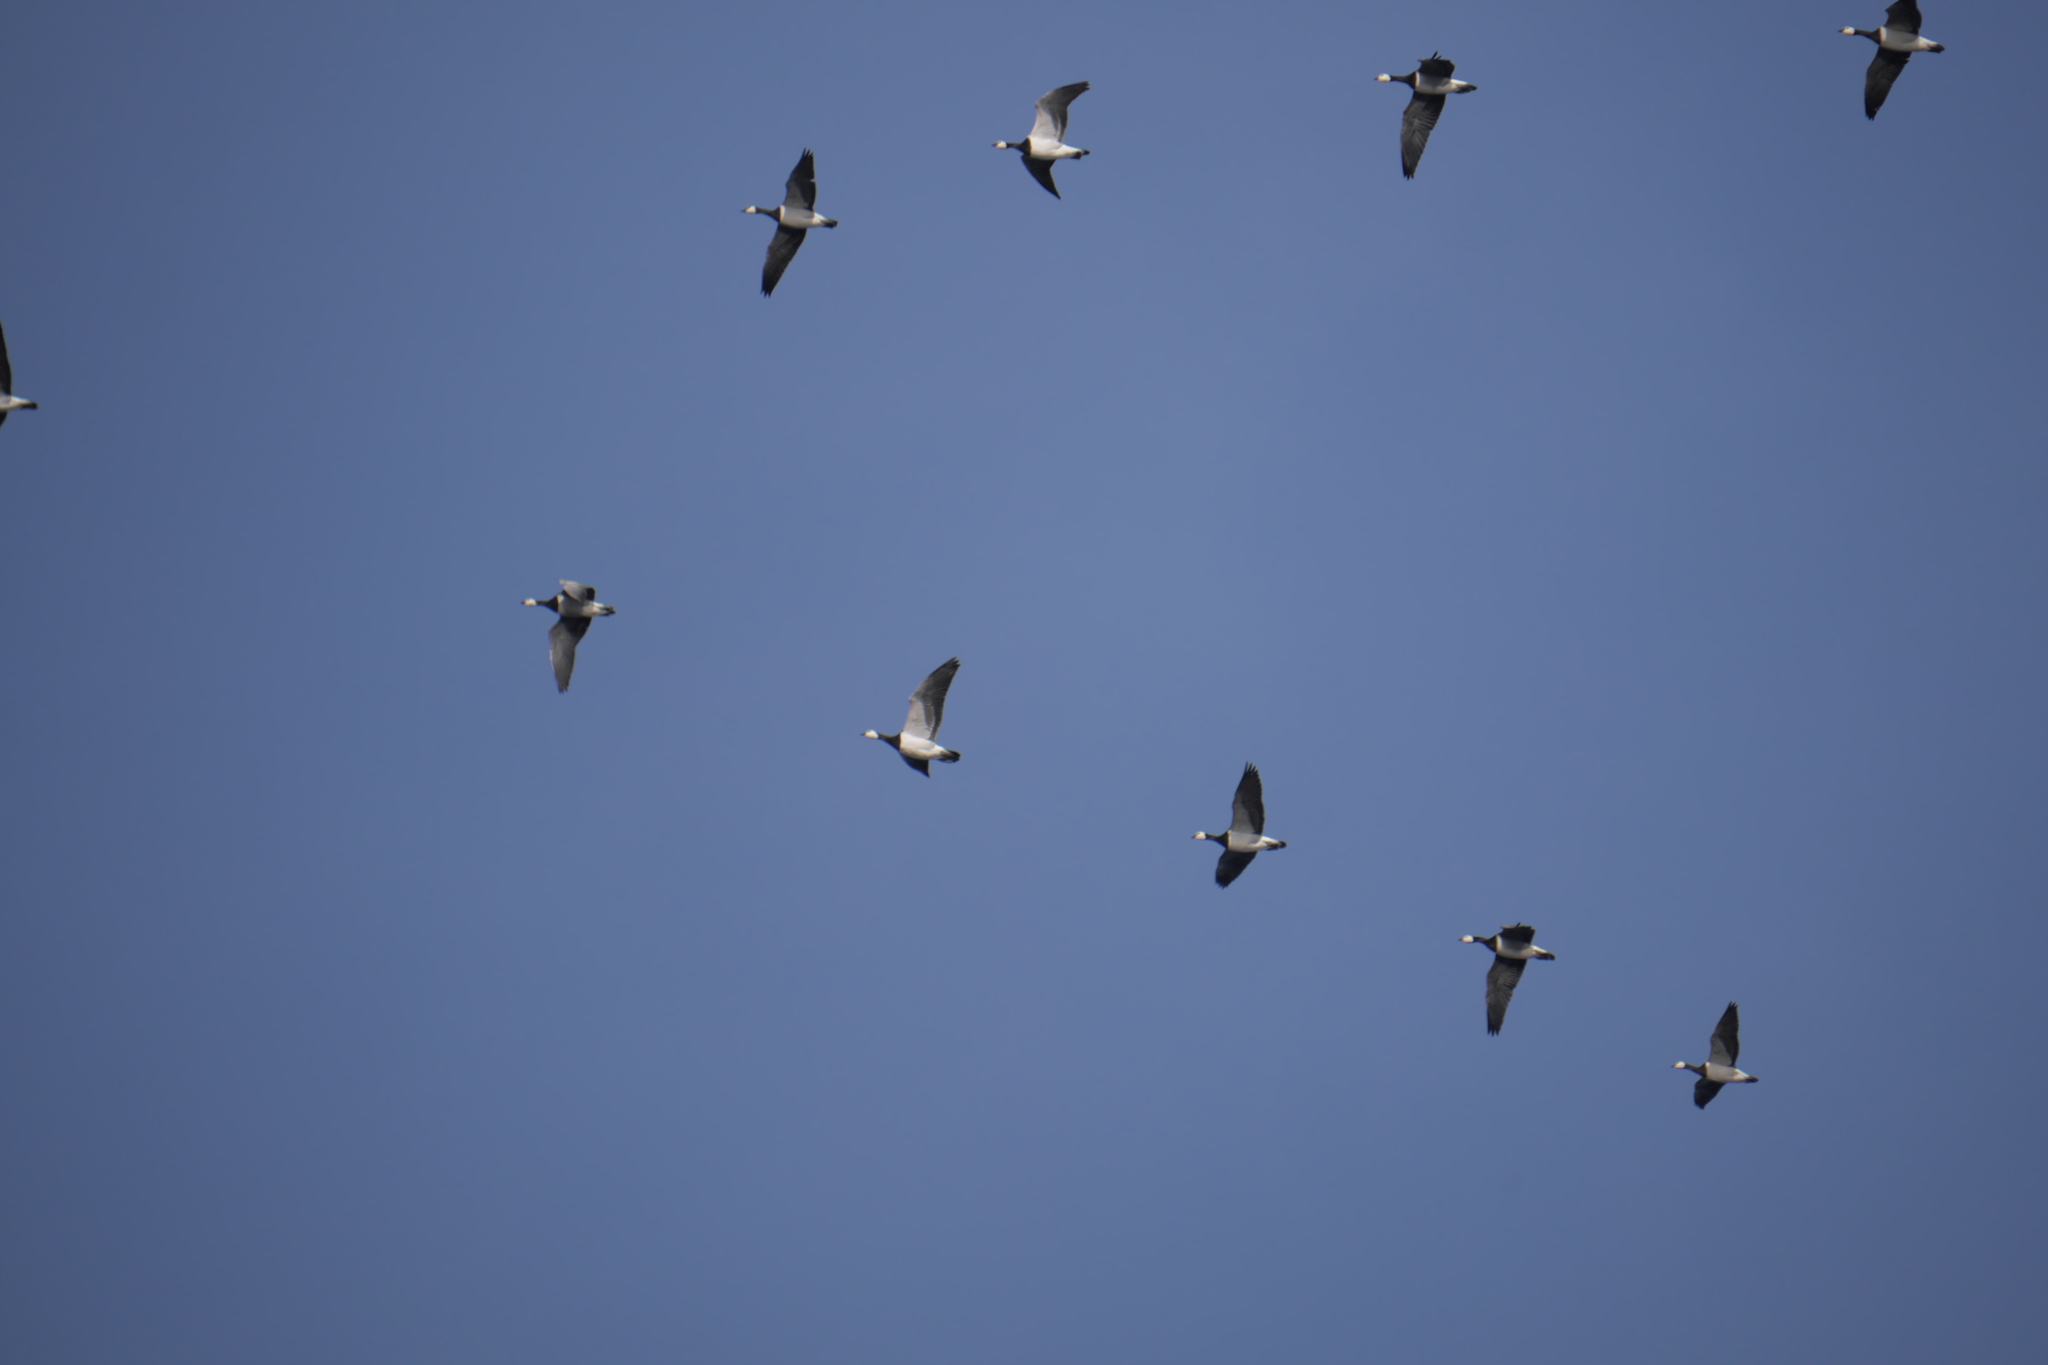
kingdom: Animalia
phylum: Chordata
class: Aves
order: Anseriformes
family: Anatidae
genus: Branta
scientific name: Branta leucopsis
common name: Barnacle goose
